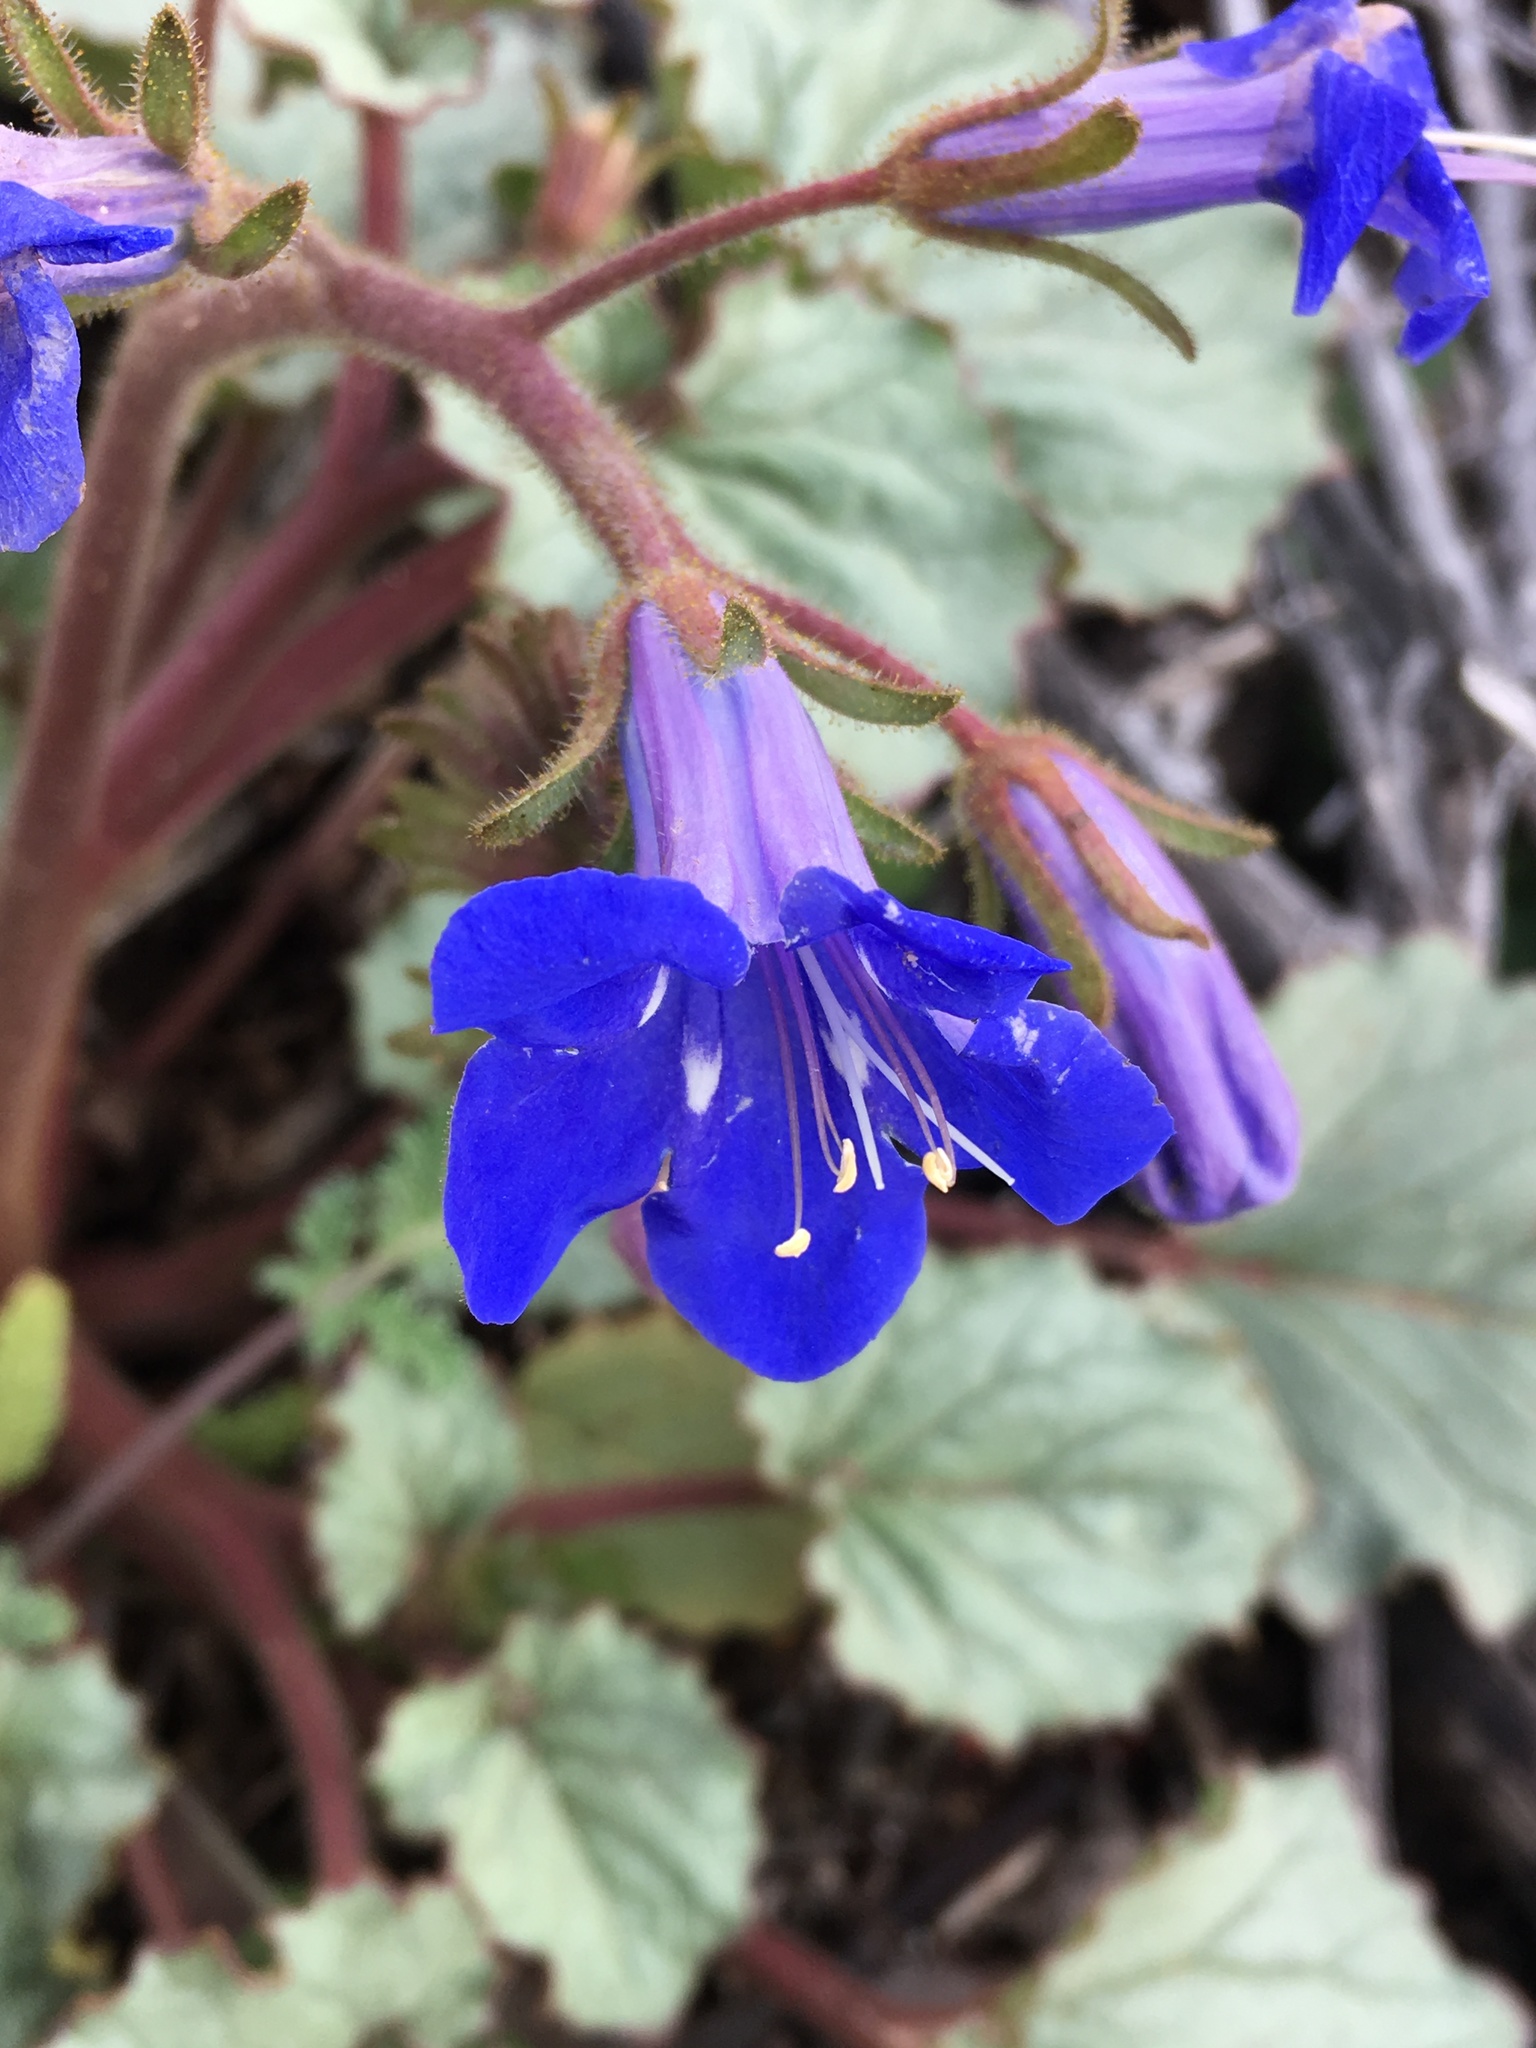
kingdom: Plantae
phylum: Tracheophyta
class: Magnoliopsida
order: Boraginales
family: Hydrophyllaceae
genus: Phacelia
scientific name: Phacelia campanularia
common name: California bluebell
